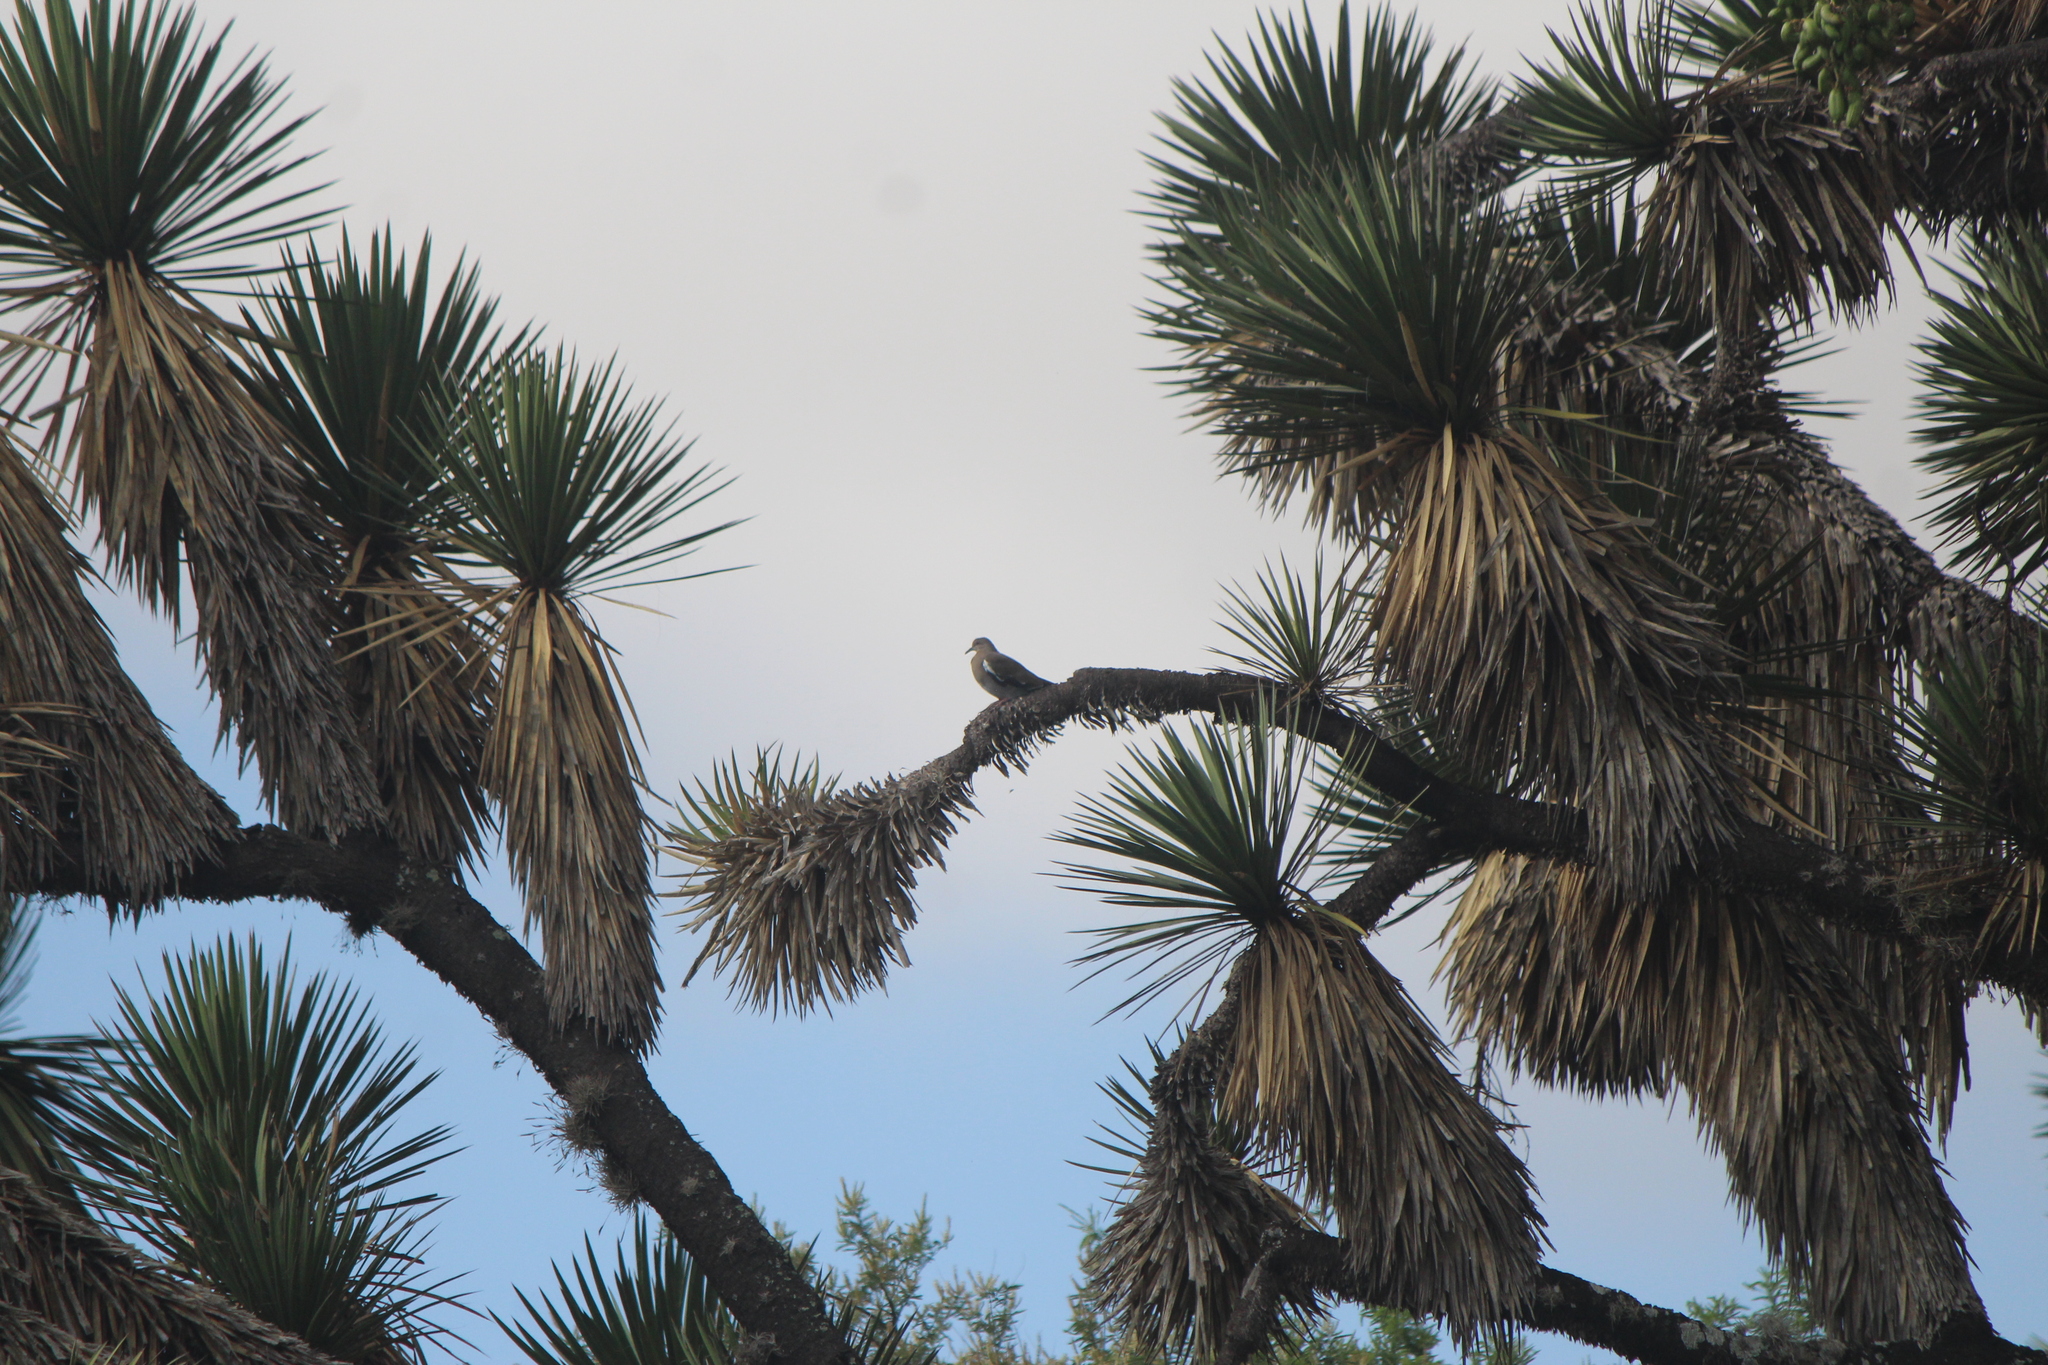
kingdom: Animalia
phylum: Chordata
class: Aves
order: Columbiformes
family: Columbidae
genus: Zenaida
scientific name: Zenaida asiatica
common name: White-winged dove
